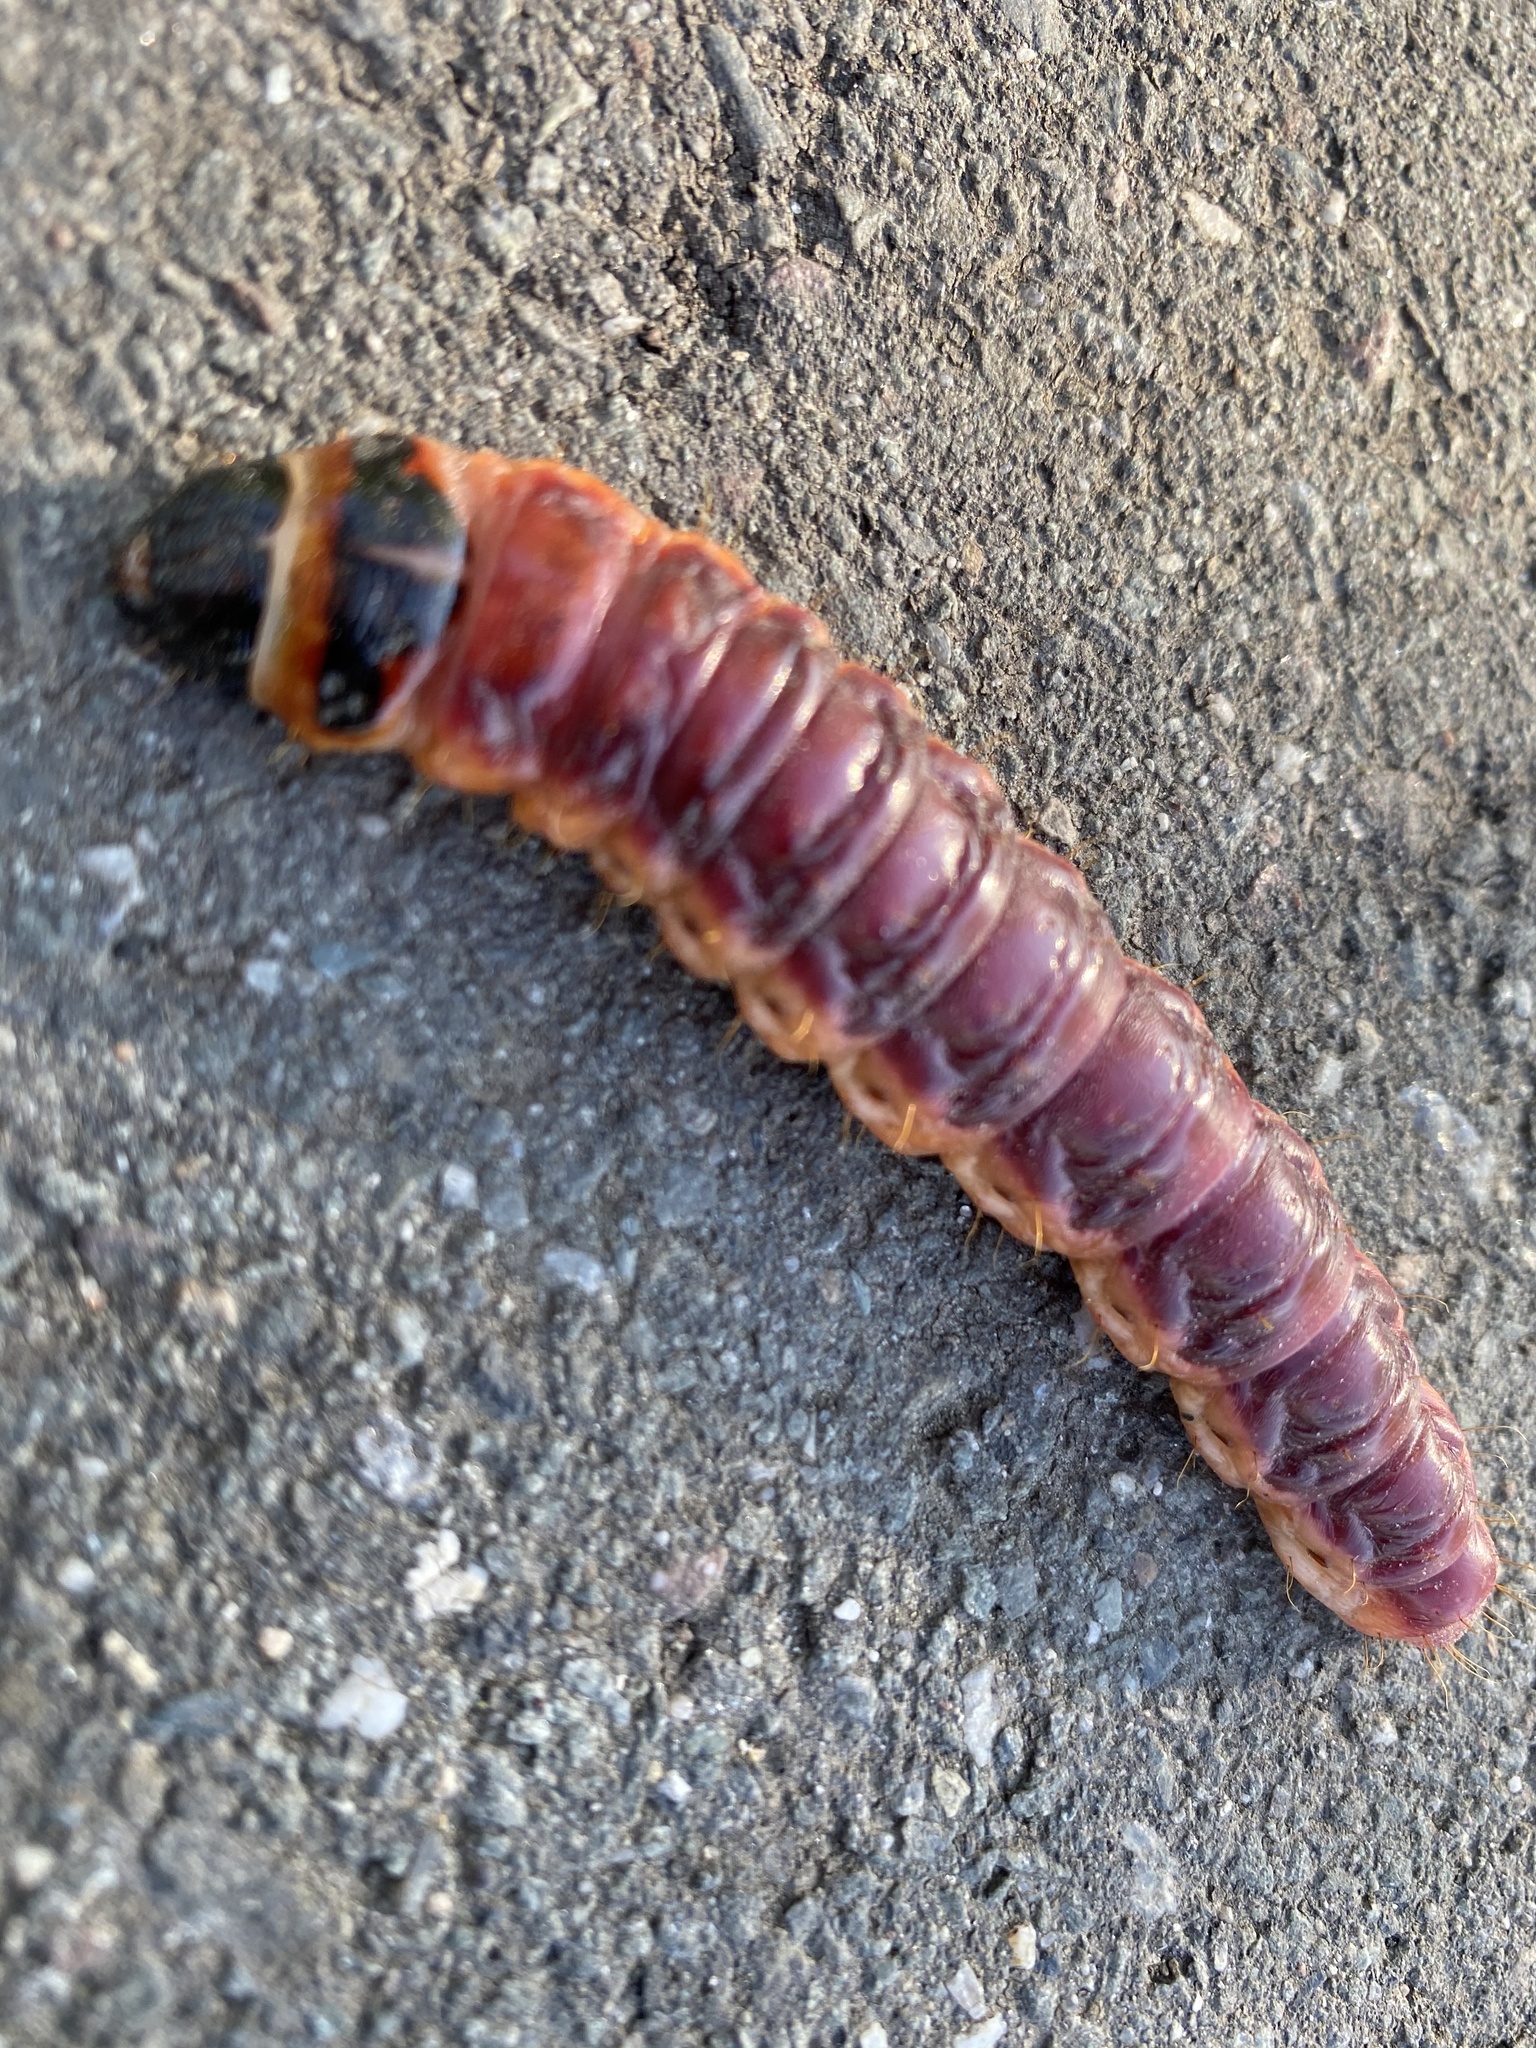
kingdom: Animalia
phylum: Arthropoda
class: Insecta
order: Lepidoptera
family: Cossidae
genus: Cossus
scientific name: Cossus cossus
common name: Goat moth
